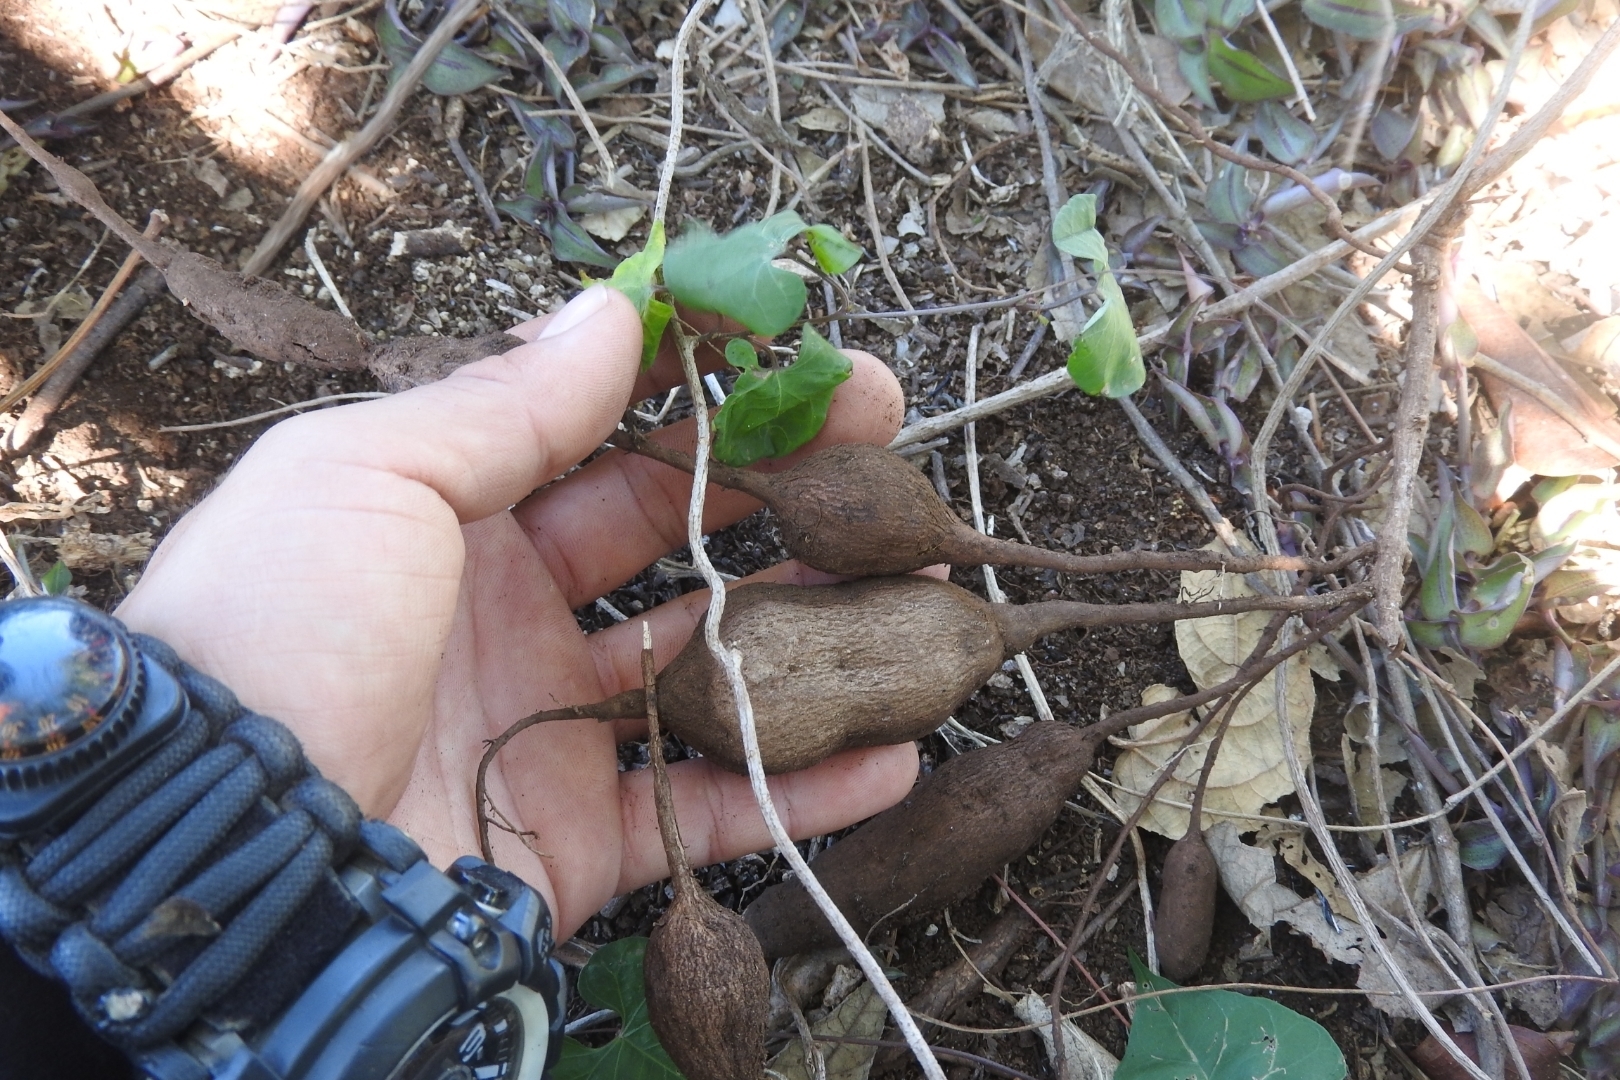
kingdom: Plantae
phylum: Tracheophyta
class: Magnoliopsida
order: Malpighiales
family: Euphorbiaceae
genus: Manihot
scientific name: Manihot esculenta
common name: Cassava
